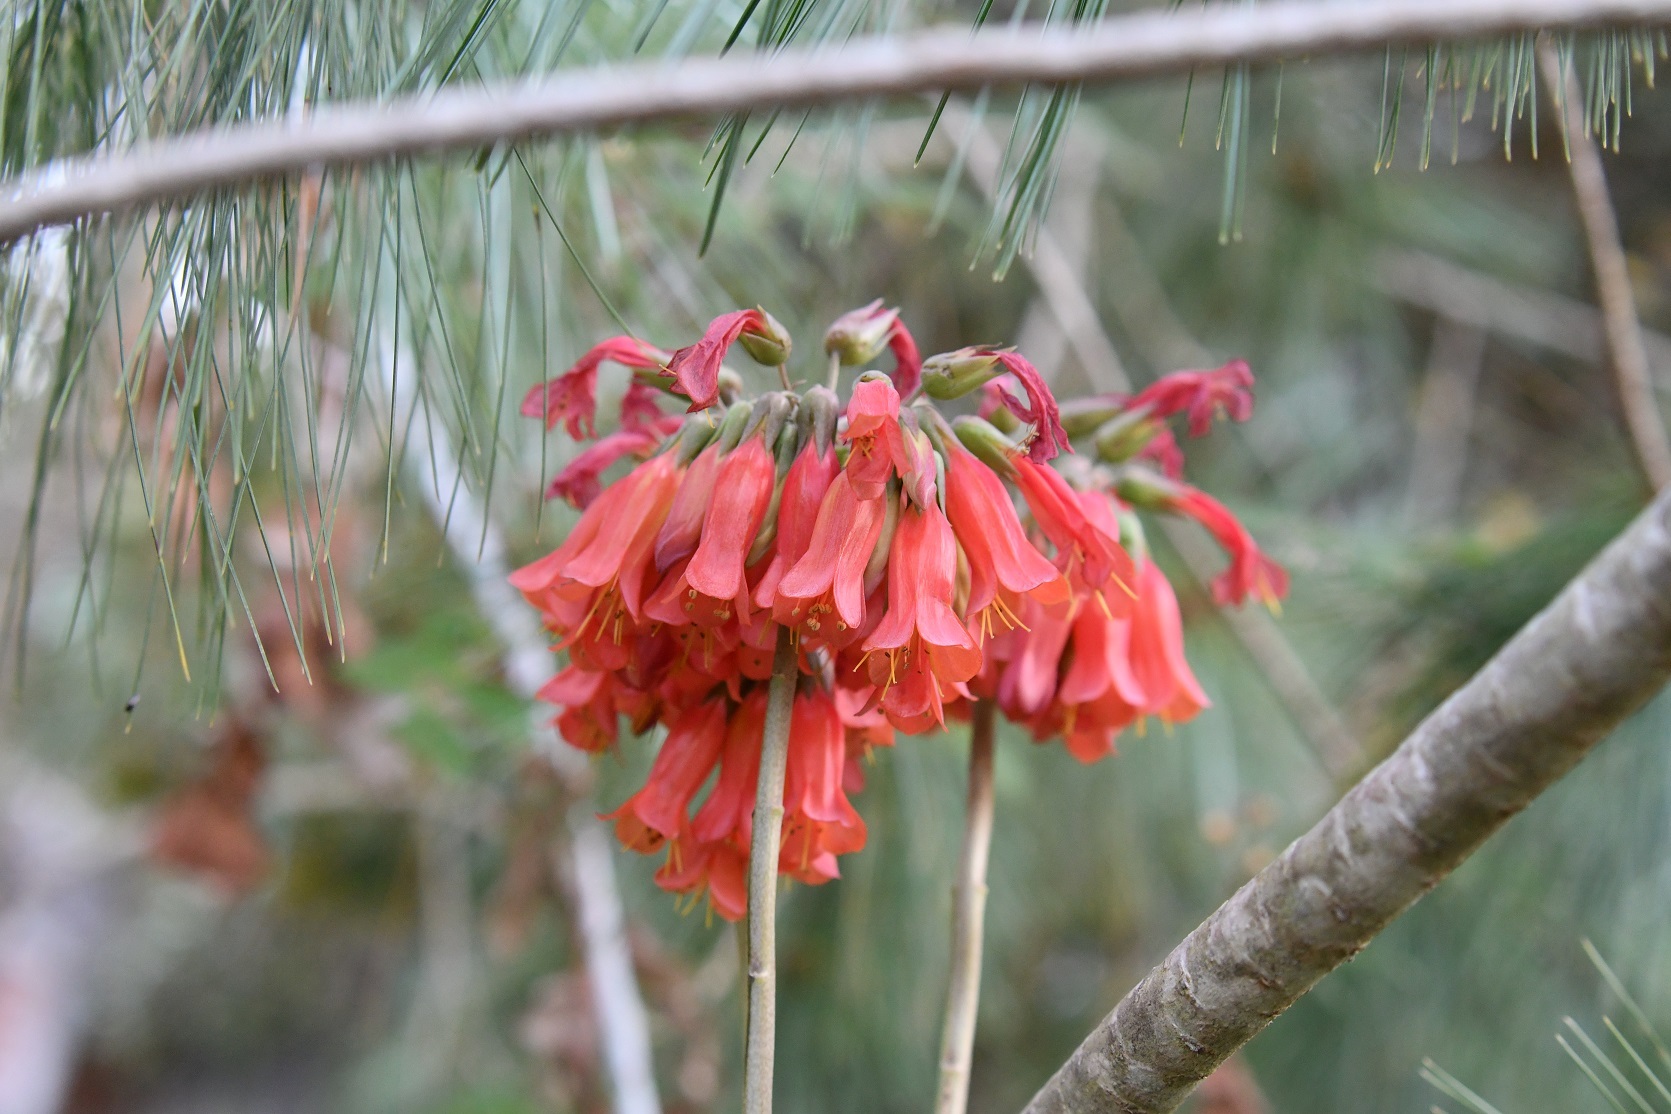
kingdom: Plantae
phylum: Tracheophyta
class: Magnoliopsida
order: Saxifragales
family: Crassulaceae
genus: Kalanchoe
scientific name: Kalanchoe delagoensis
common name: Chandelier plant
